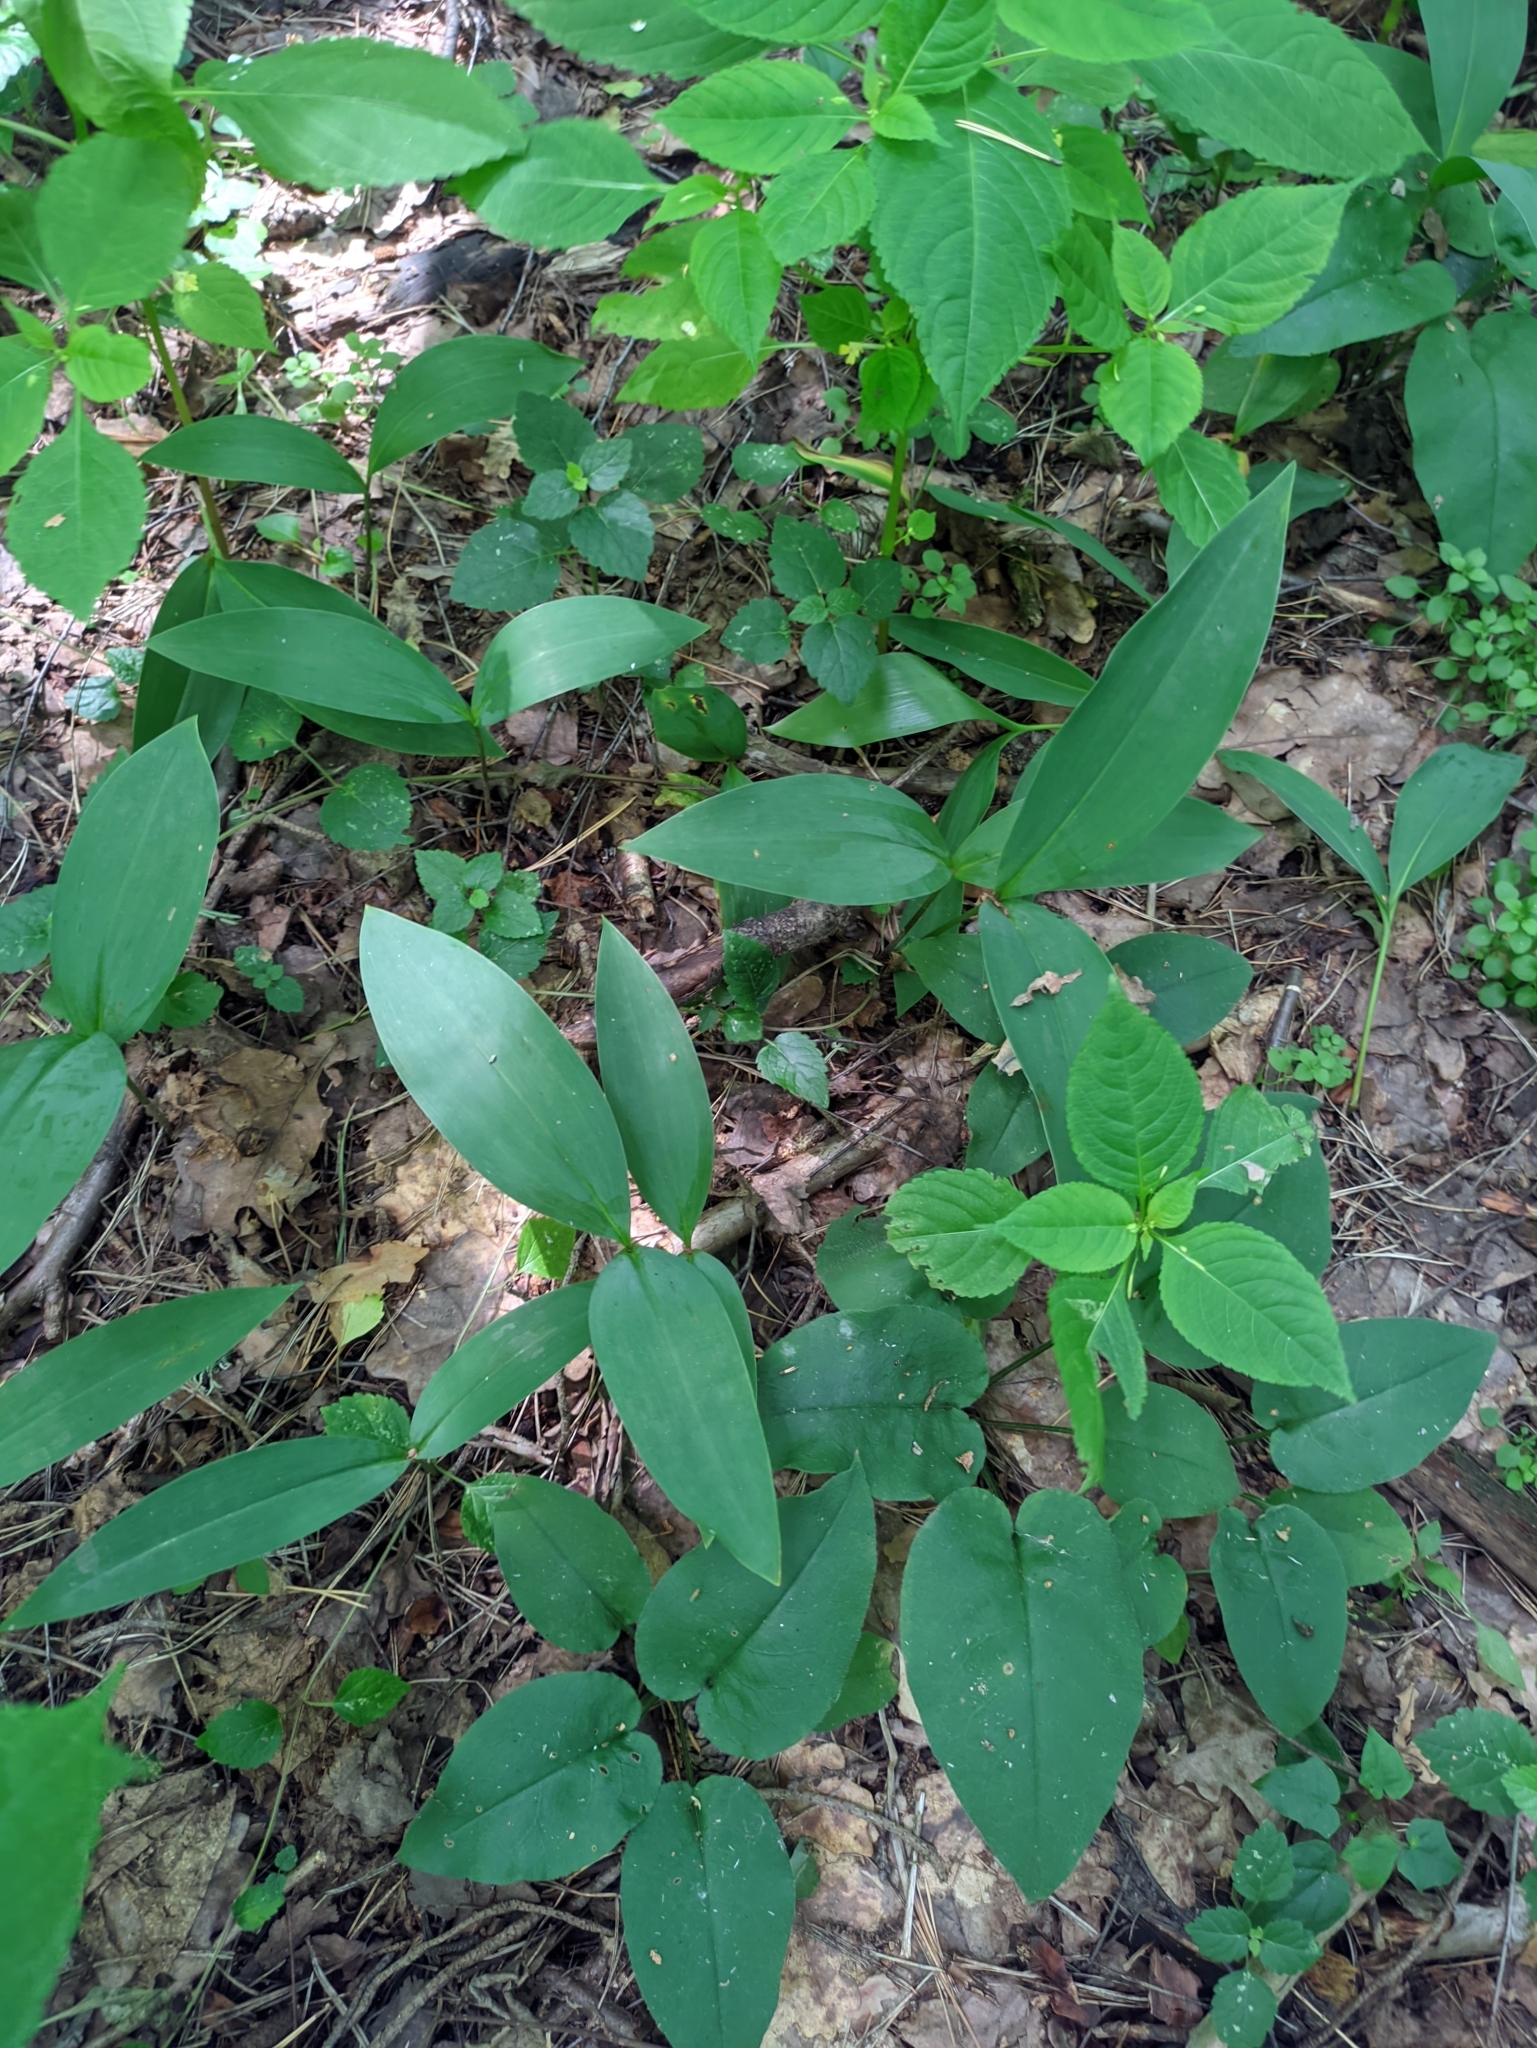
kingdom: Plantae
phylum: Tracheophyta
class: Liliopsida
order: Asparagales
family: Asparagaceae
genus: Convallaria
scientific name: Convallaria majalis
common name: Lily-of-the-valley
